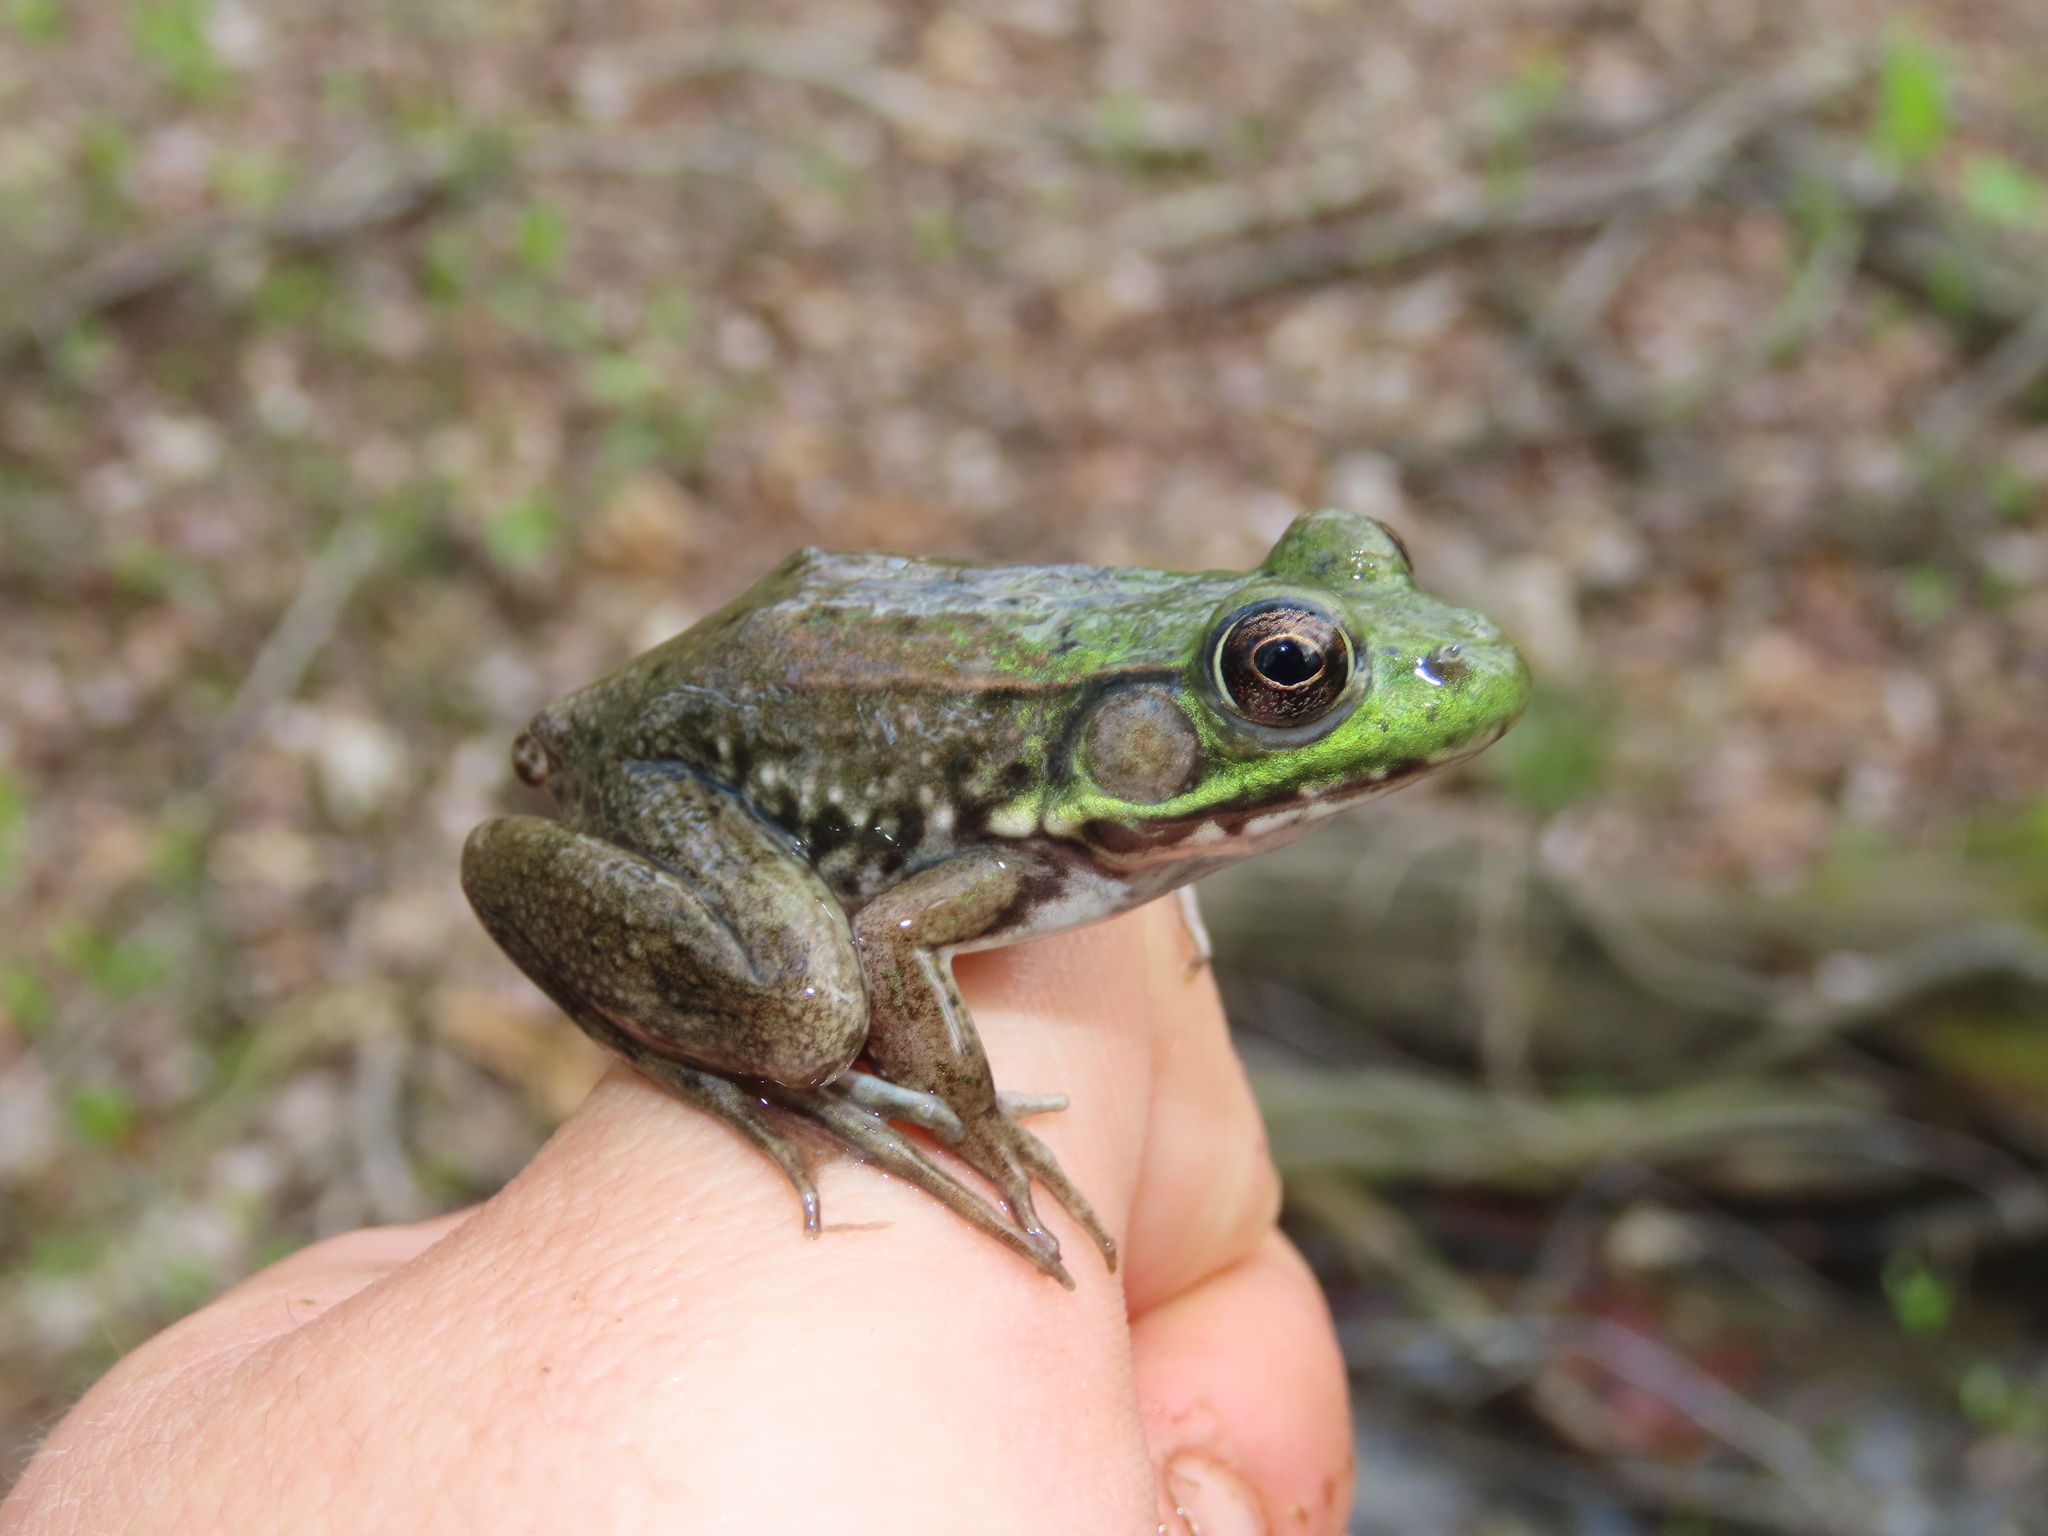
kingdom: Animalia
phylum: Chordata
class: Amphibia
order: Anura
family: Ranidae
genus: Lithobates
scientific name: Lithobates clamitans
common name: Green frog
